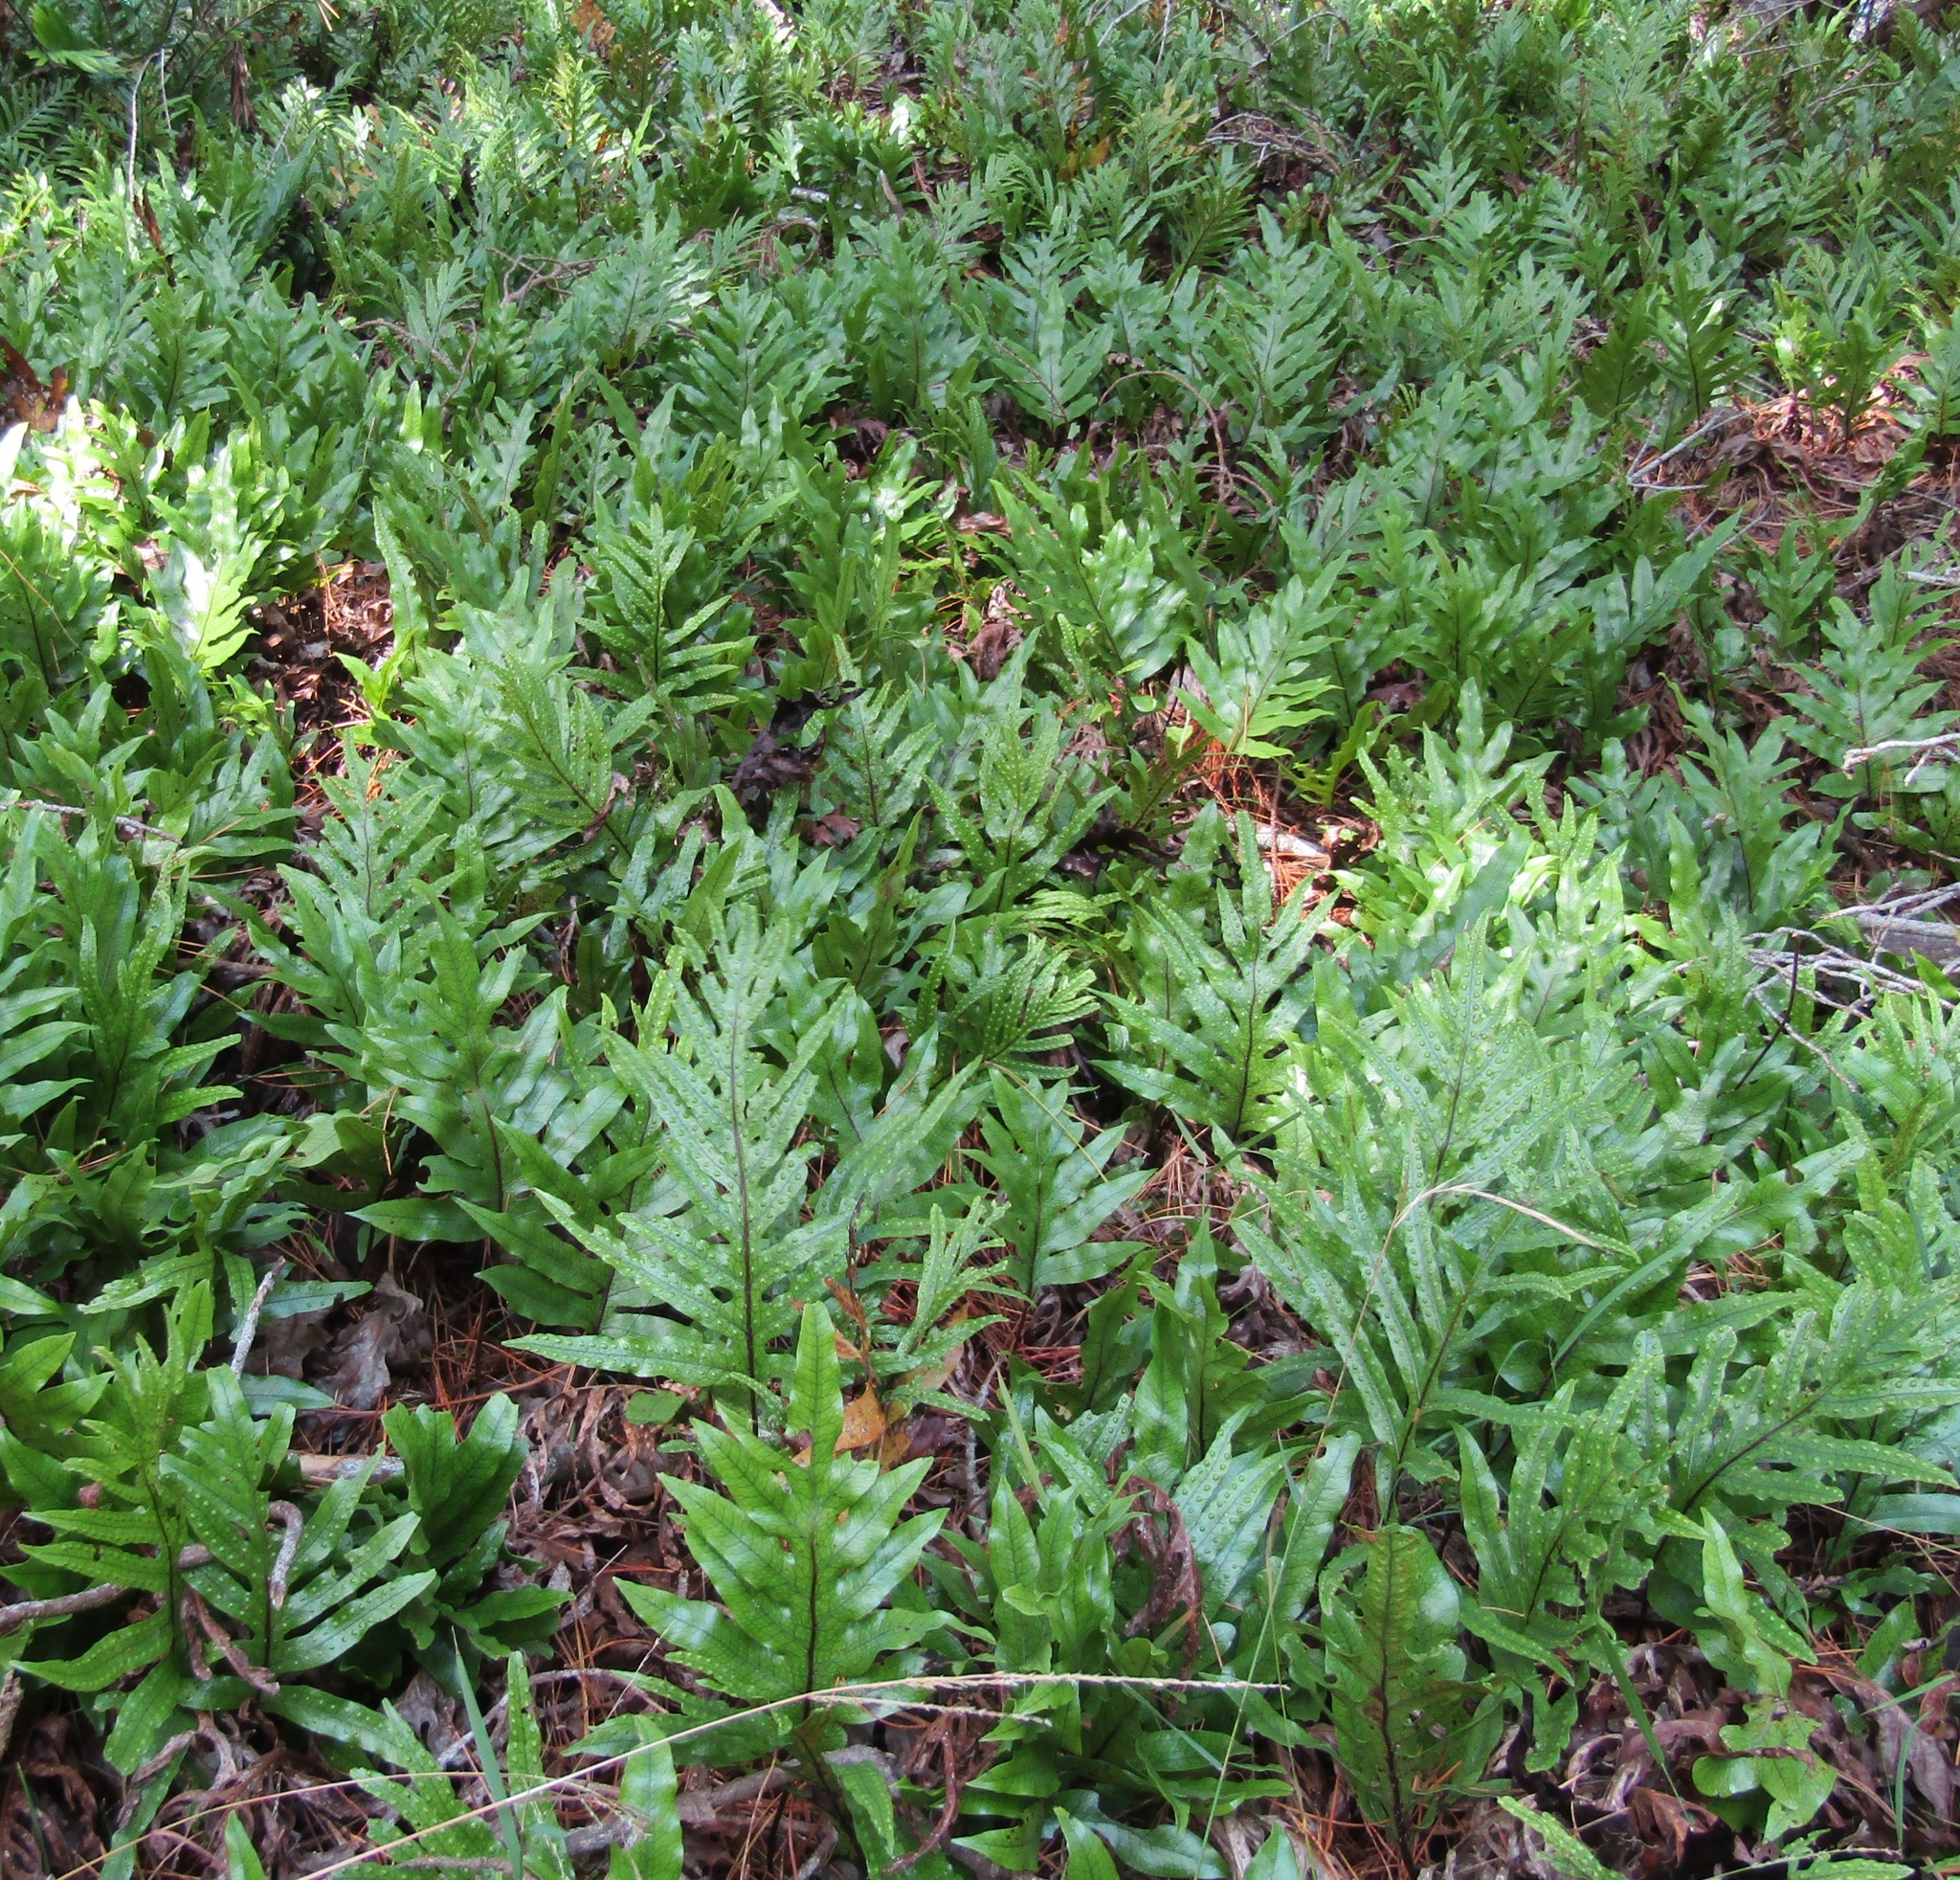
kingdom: Plantae
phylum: Tracheophyta
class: Polypodiopsida
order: Polypodiales
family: Polypodiaceae
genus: Lecanopteris
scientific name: Lecanopteris pustulata
